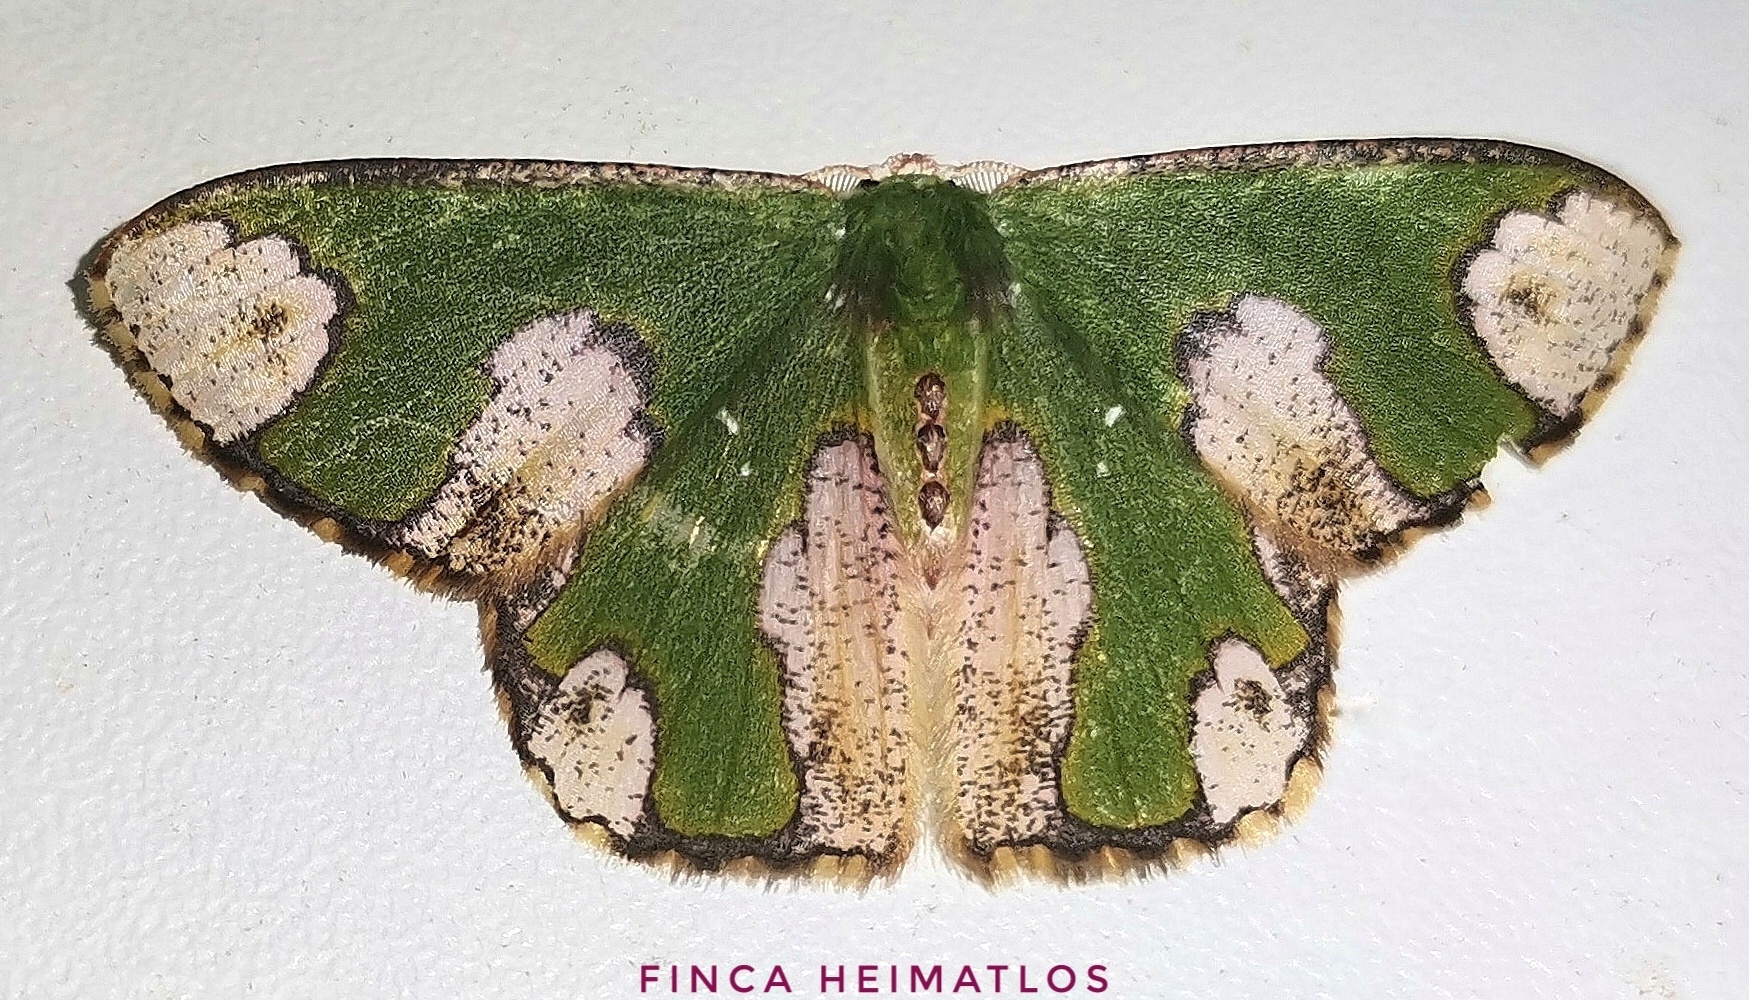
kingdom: Animalia
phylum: Arthropoda
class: Insecta
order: Lepidoptera
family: Geometridae
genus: Oospila
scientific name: Oospila ruptimacula
